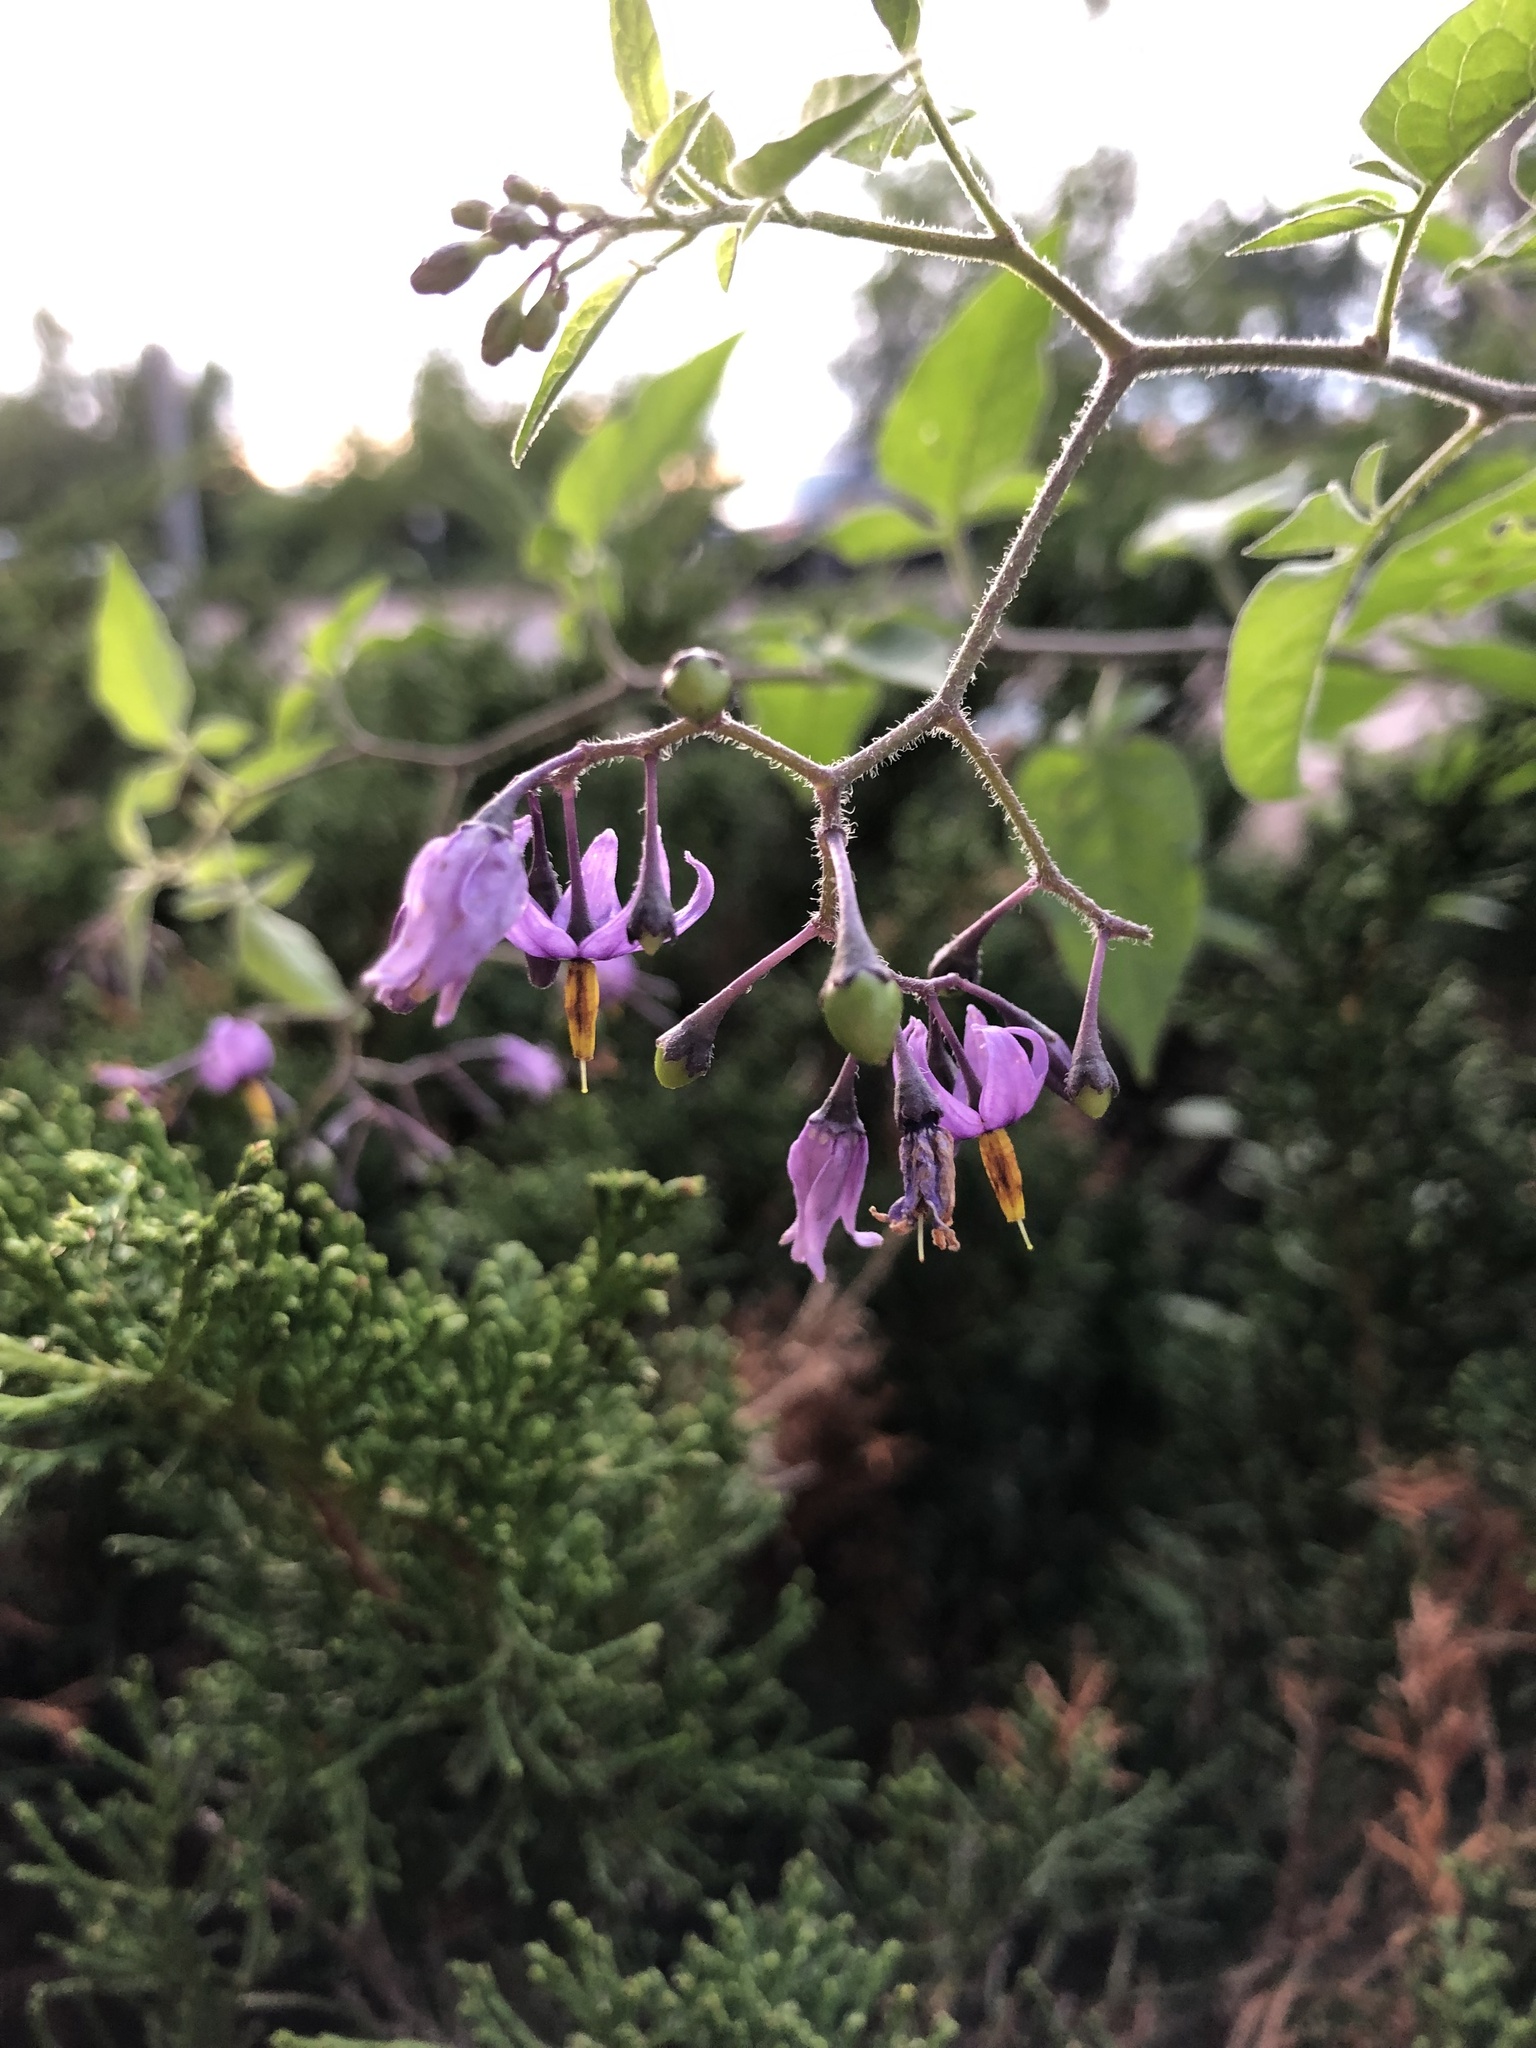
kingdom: Plantae
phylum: Tracheophyta
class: Magnoliopsida
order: Solanales
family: Solanaceae
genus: Solanum
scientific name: Solanum dulcamara
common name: Climbing nightshade
